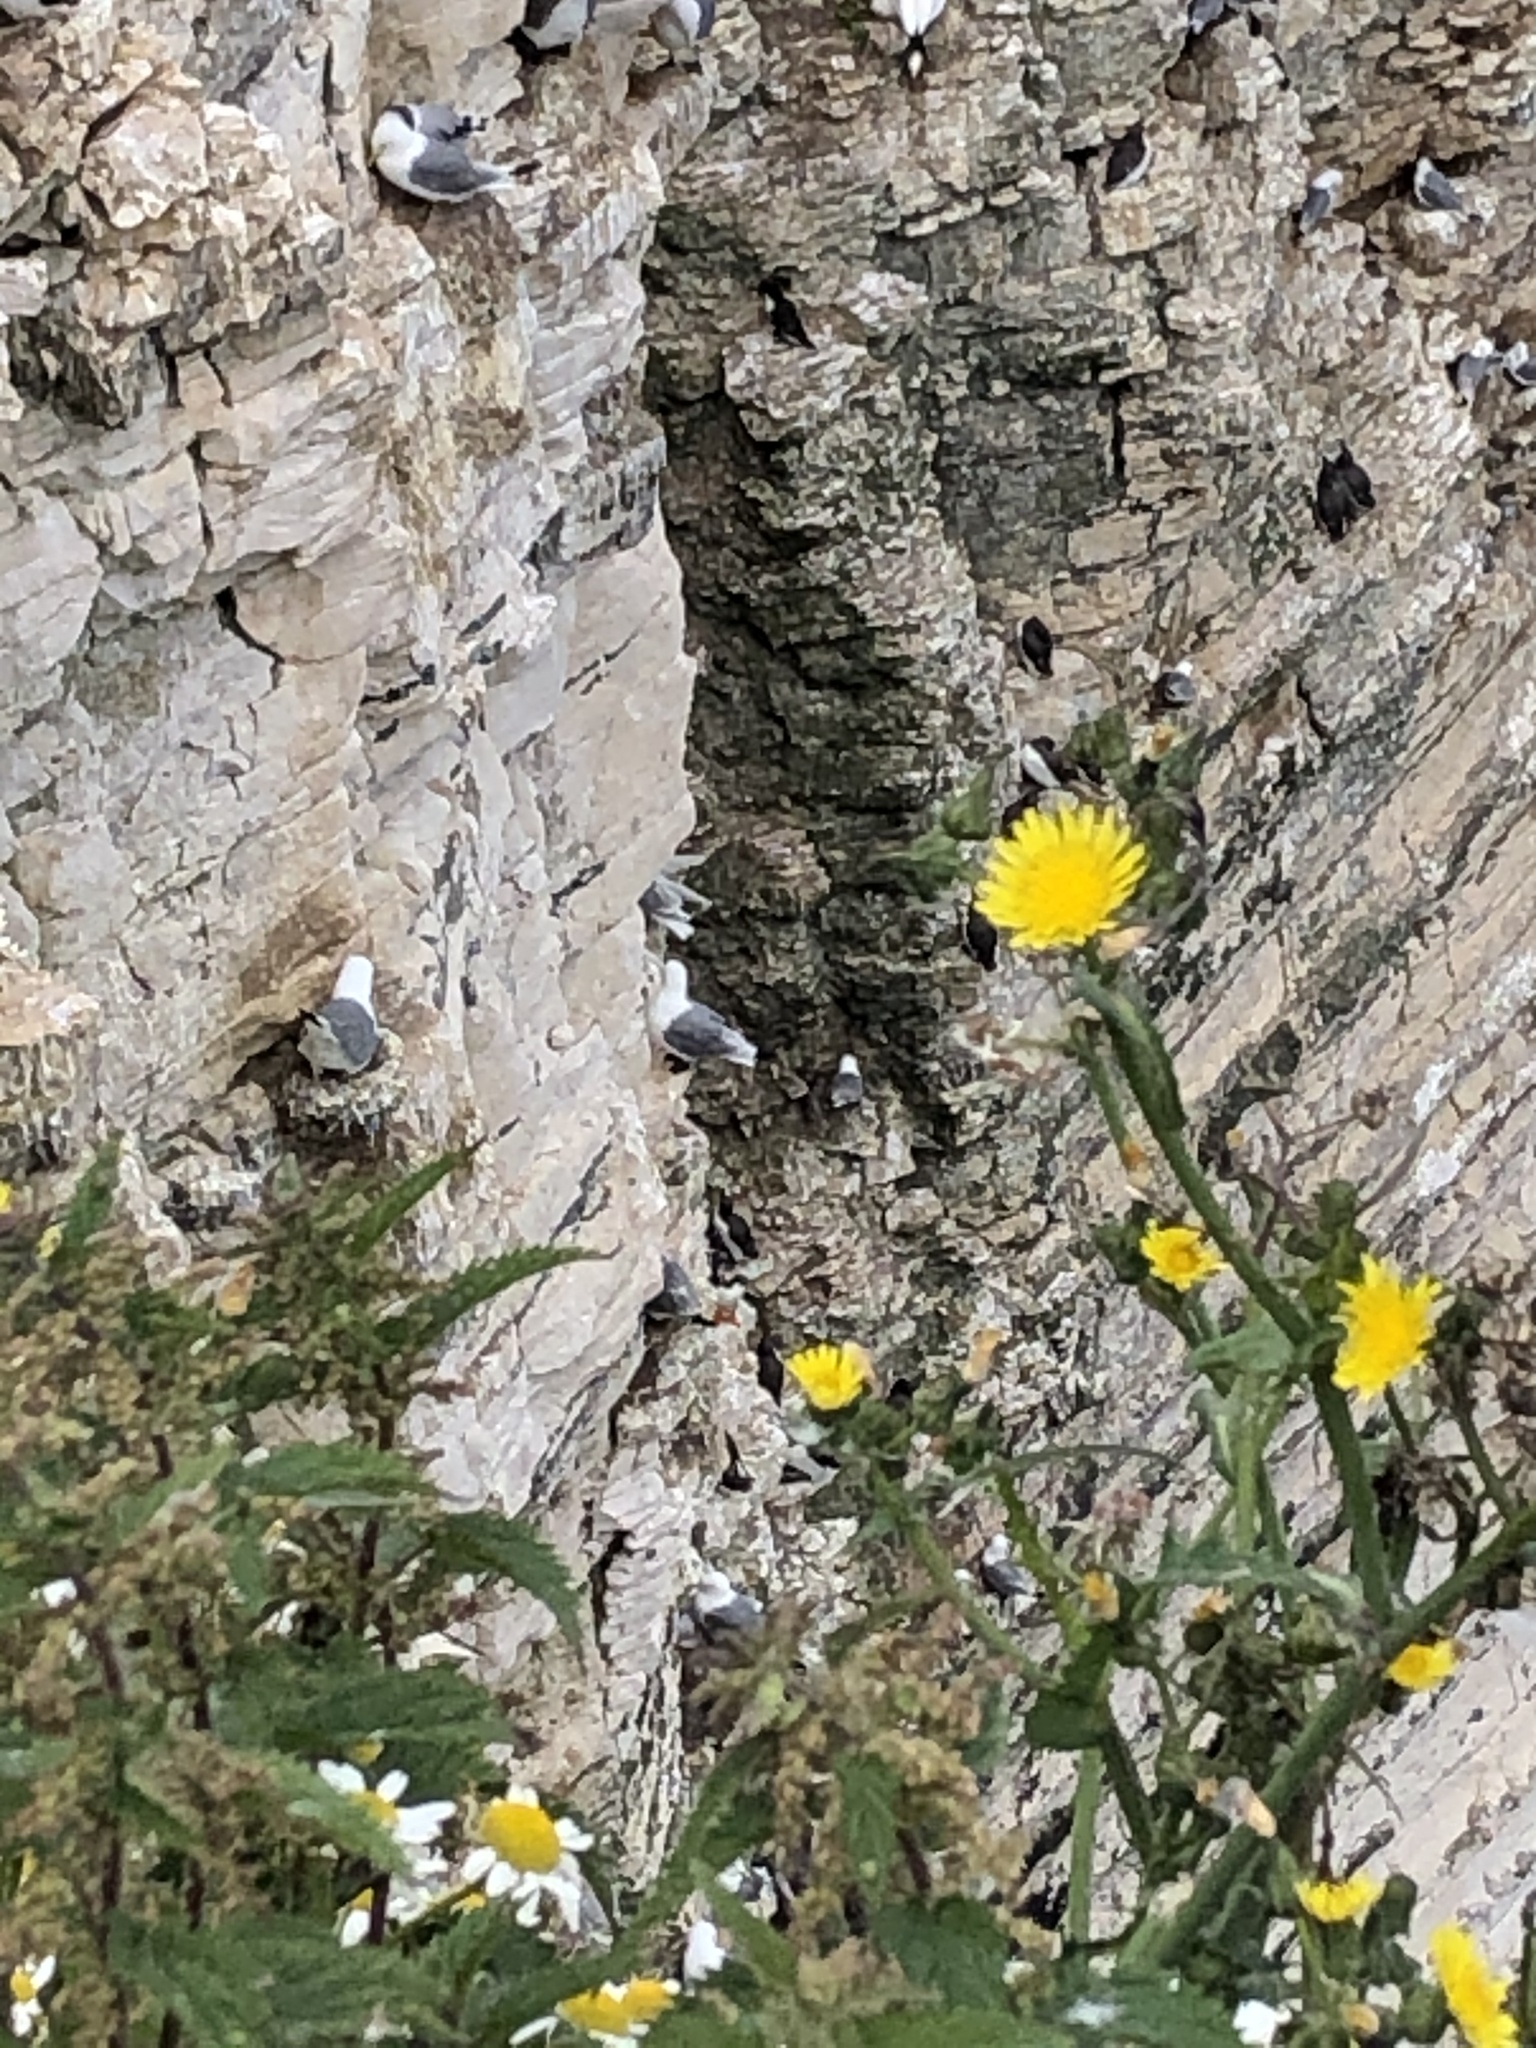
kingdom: Animalia
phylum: Chordata
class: Aves
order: Charadriiformes
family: Laridae
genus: Rissa
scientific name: Rissa tridactyla
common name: Black-legged kittiwake
